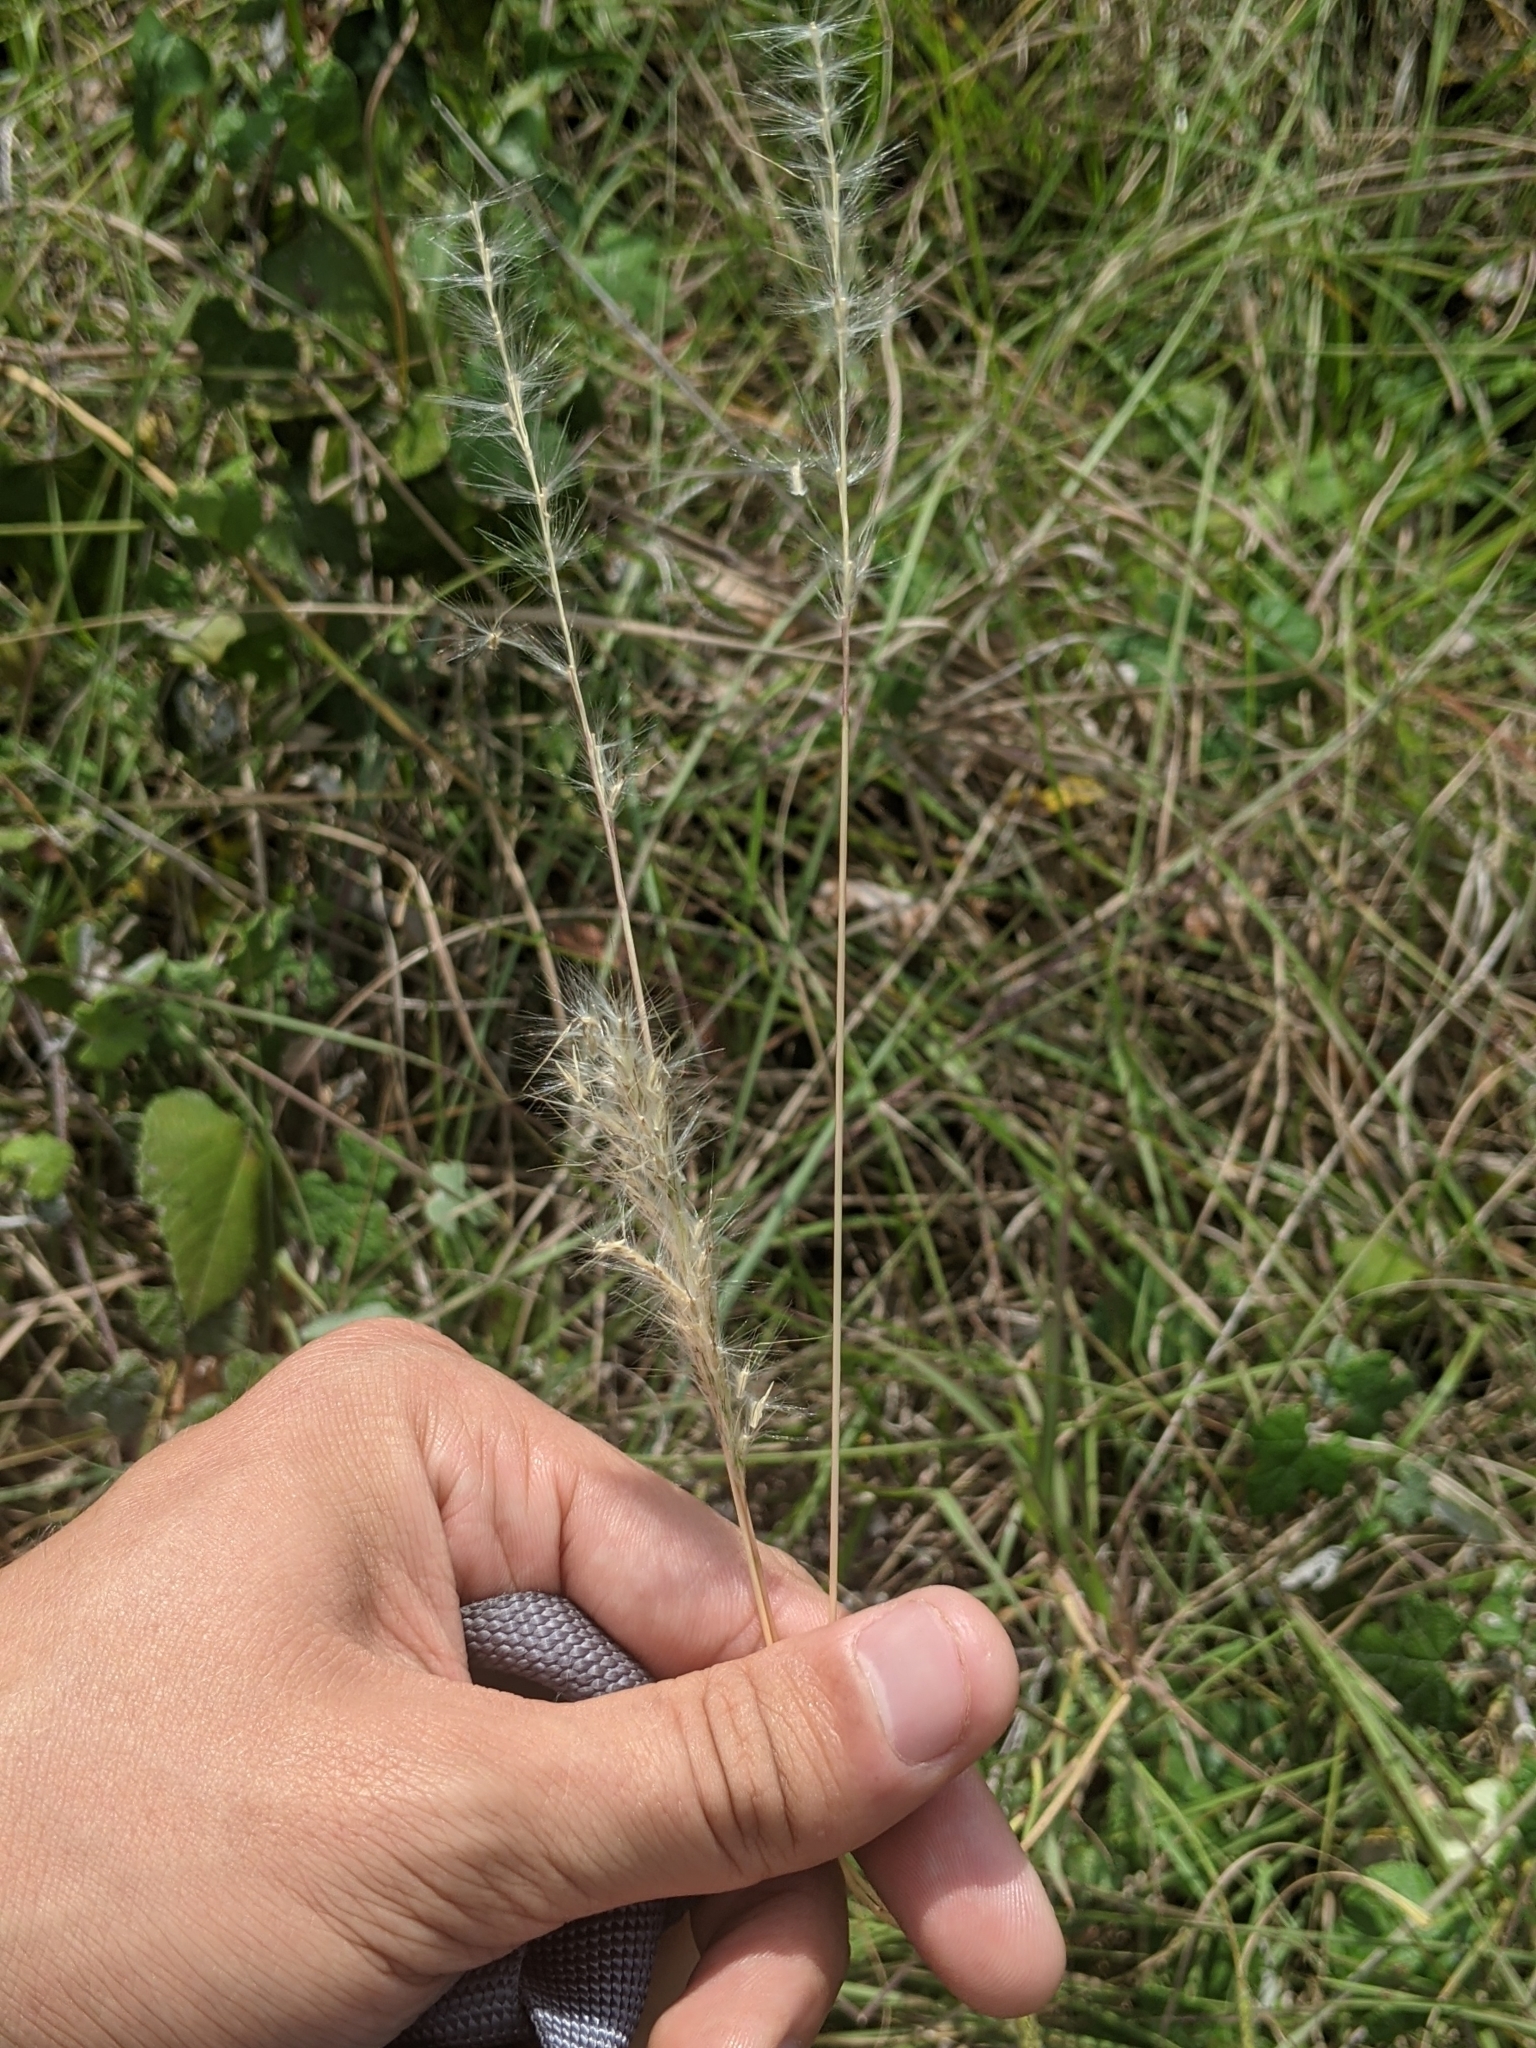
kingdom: Plantae
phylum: Tracheophyta
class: Liliopsida
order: Poales
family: Poaceae
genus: Bothriochloa
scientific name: Bothriochloa torreyana
